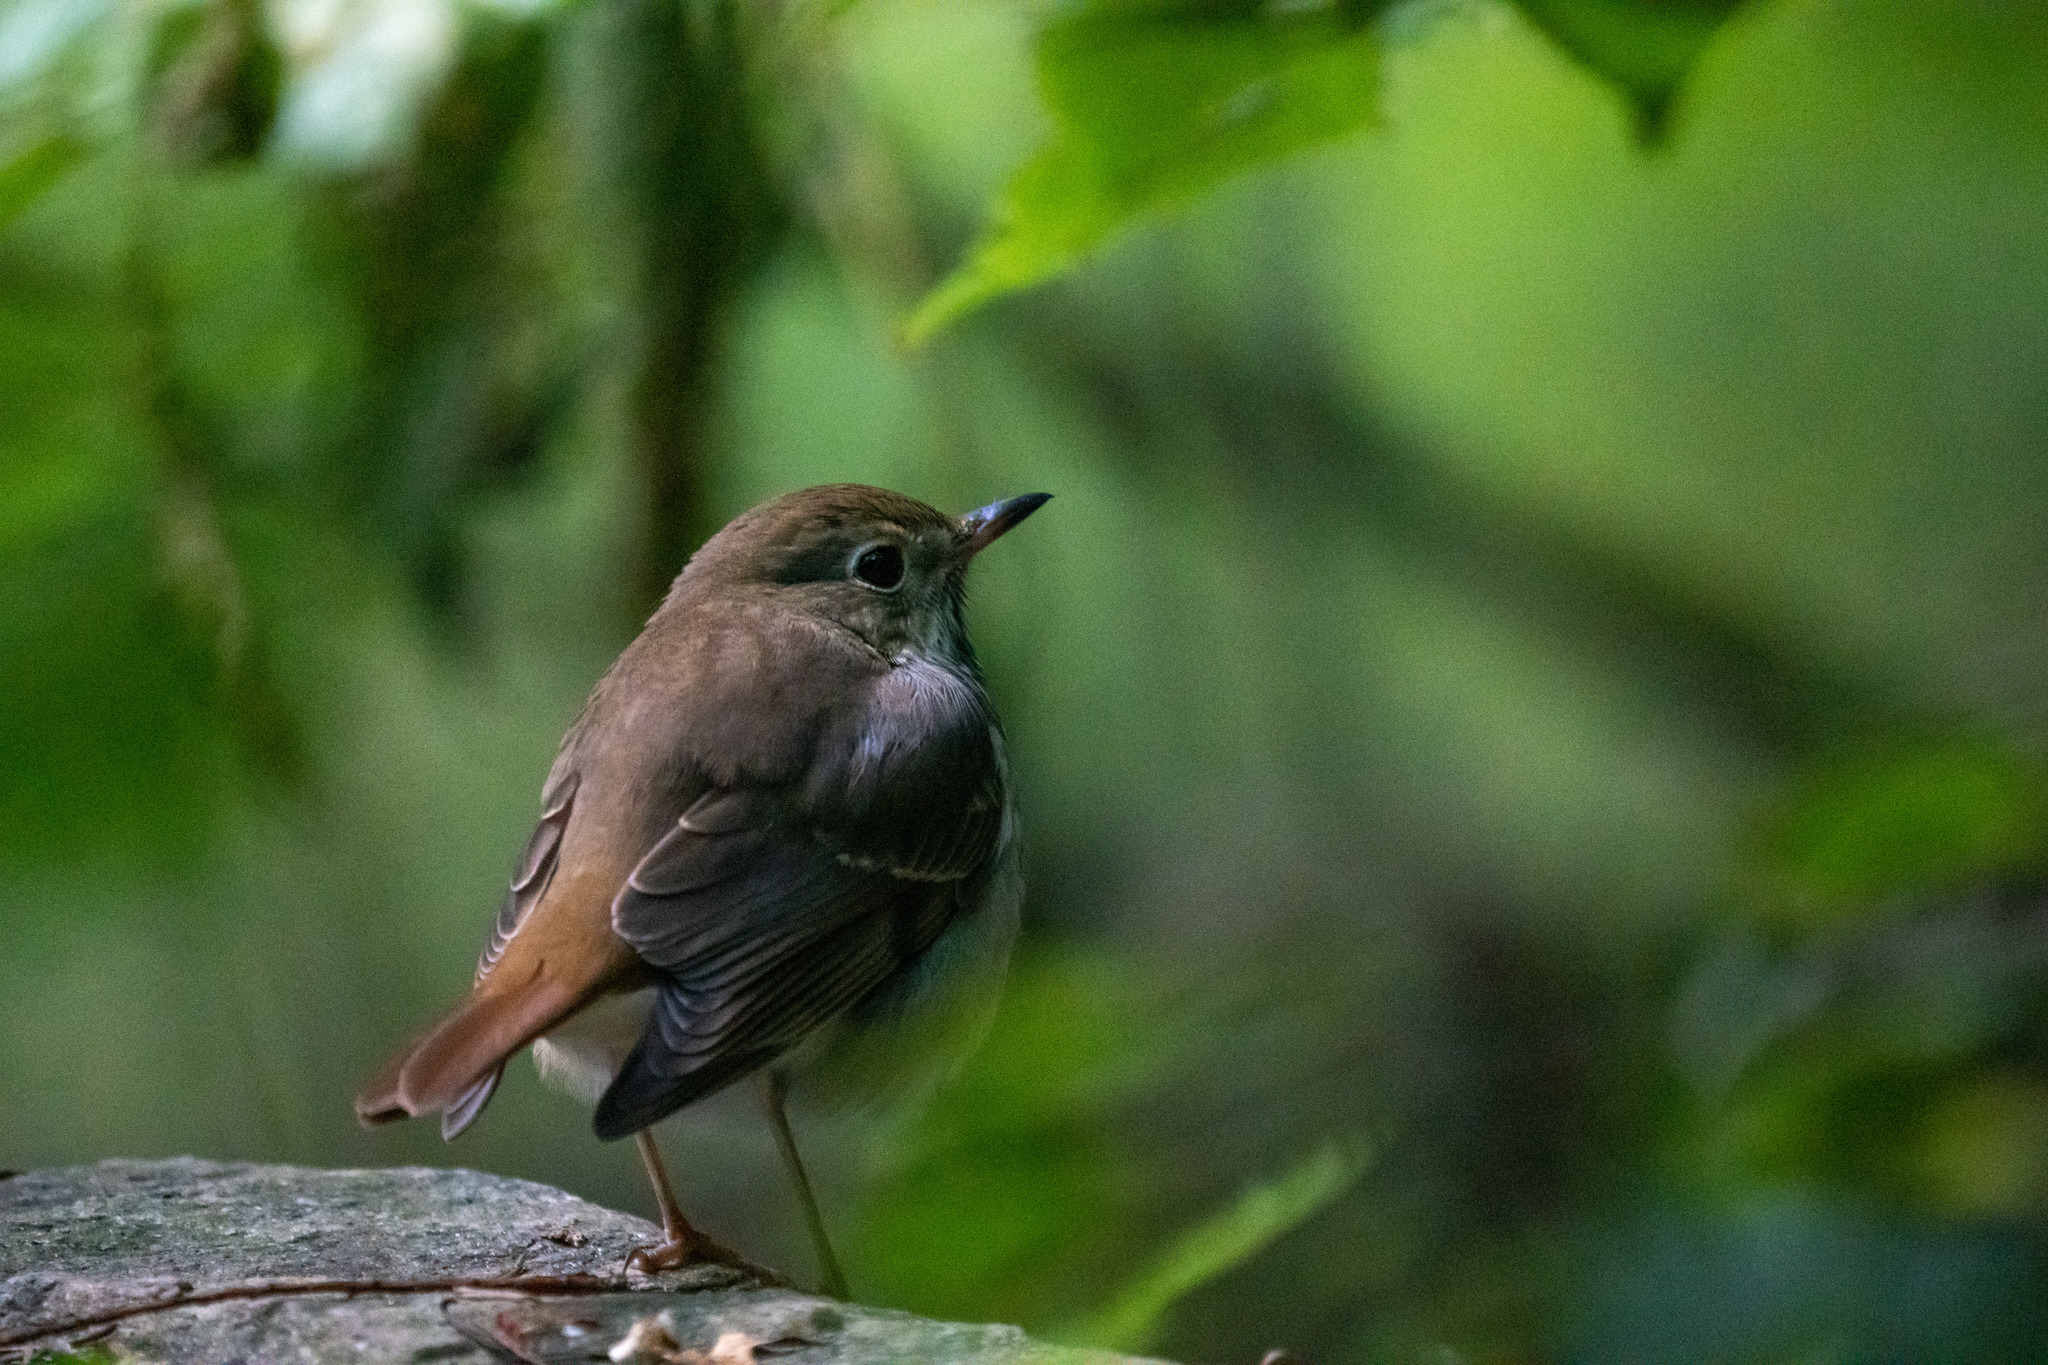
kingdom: Animalia
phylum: Chordata
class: Aves
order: Passeriformes
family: Turdidae
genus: Catharus
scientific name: Catharus guttatus
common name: Hermit thrush
